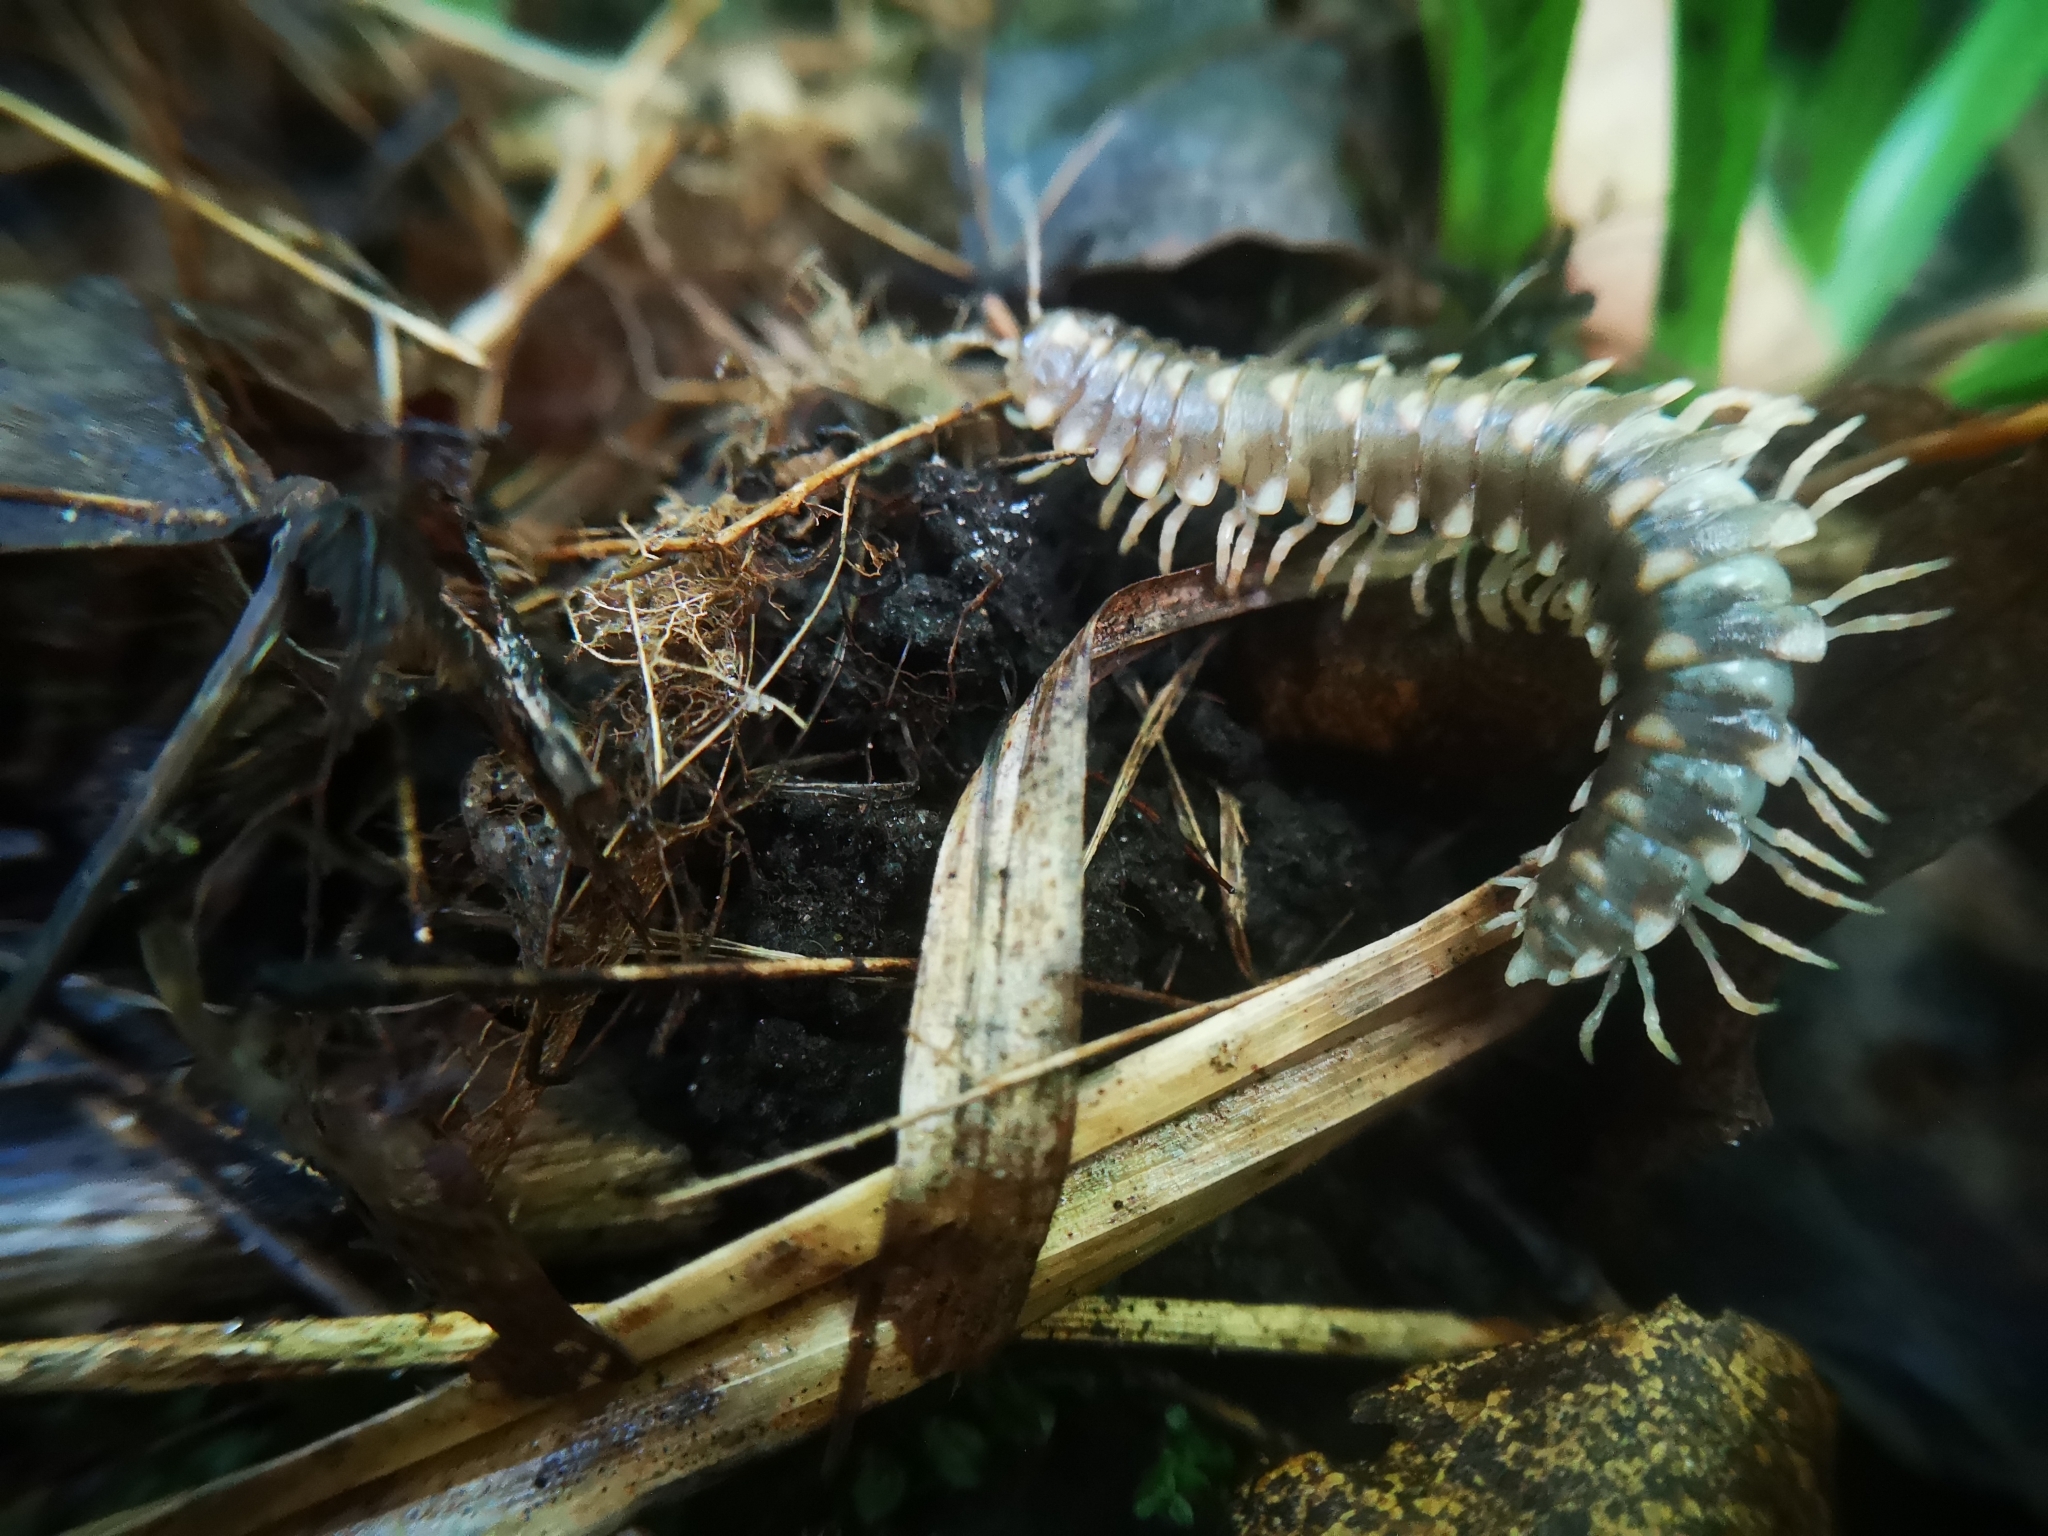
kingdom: Animalia
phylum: Arthropoda
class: Diplopoda
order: Polydesmida
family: Xystodesmidae
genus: Rudiloria
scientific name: Rudiloria trimaculata
